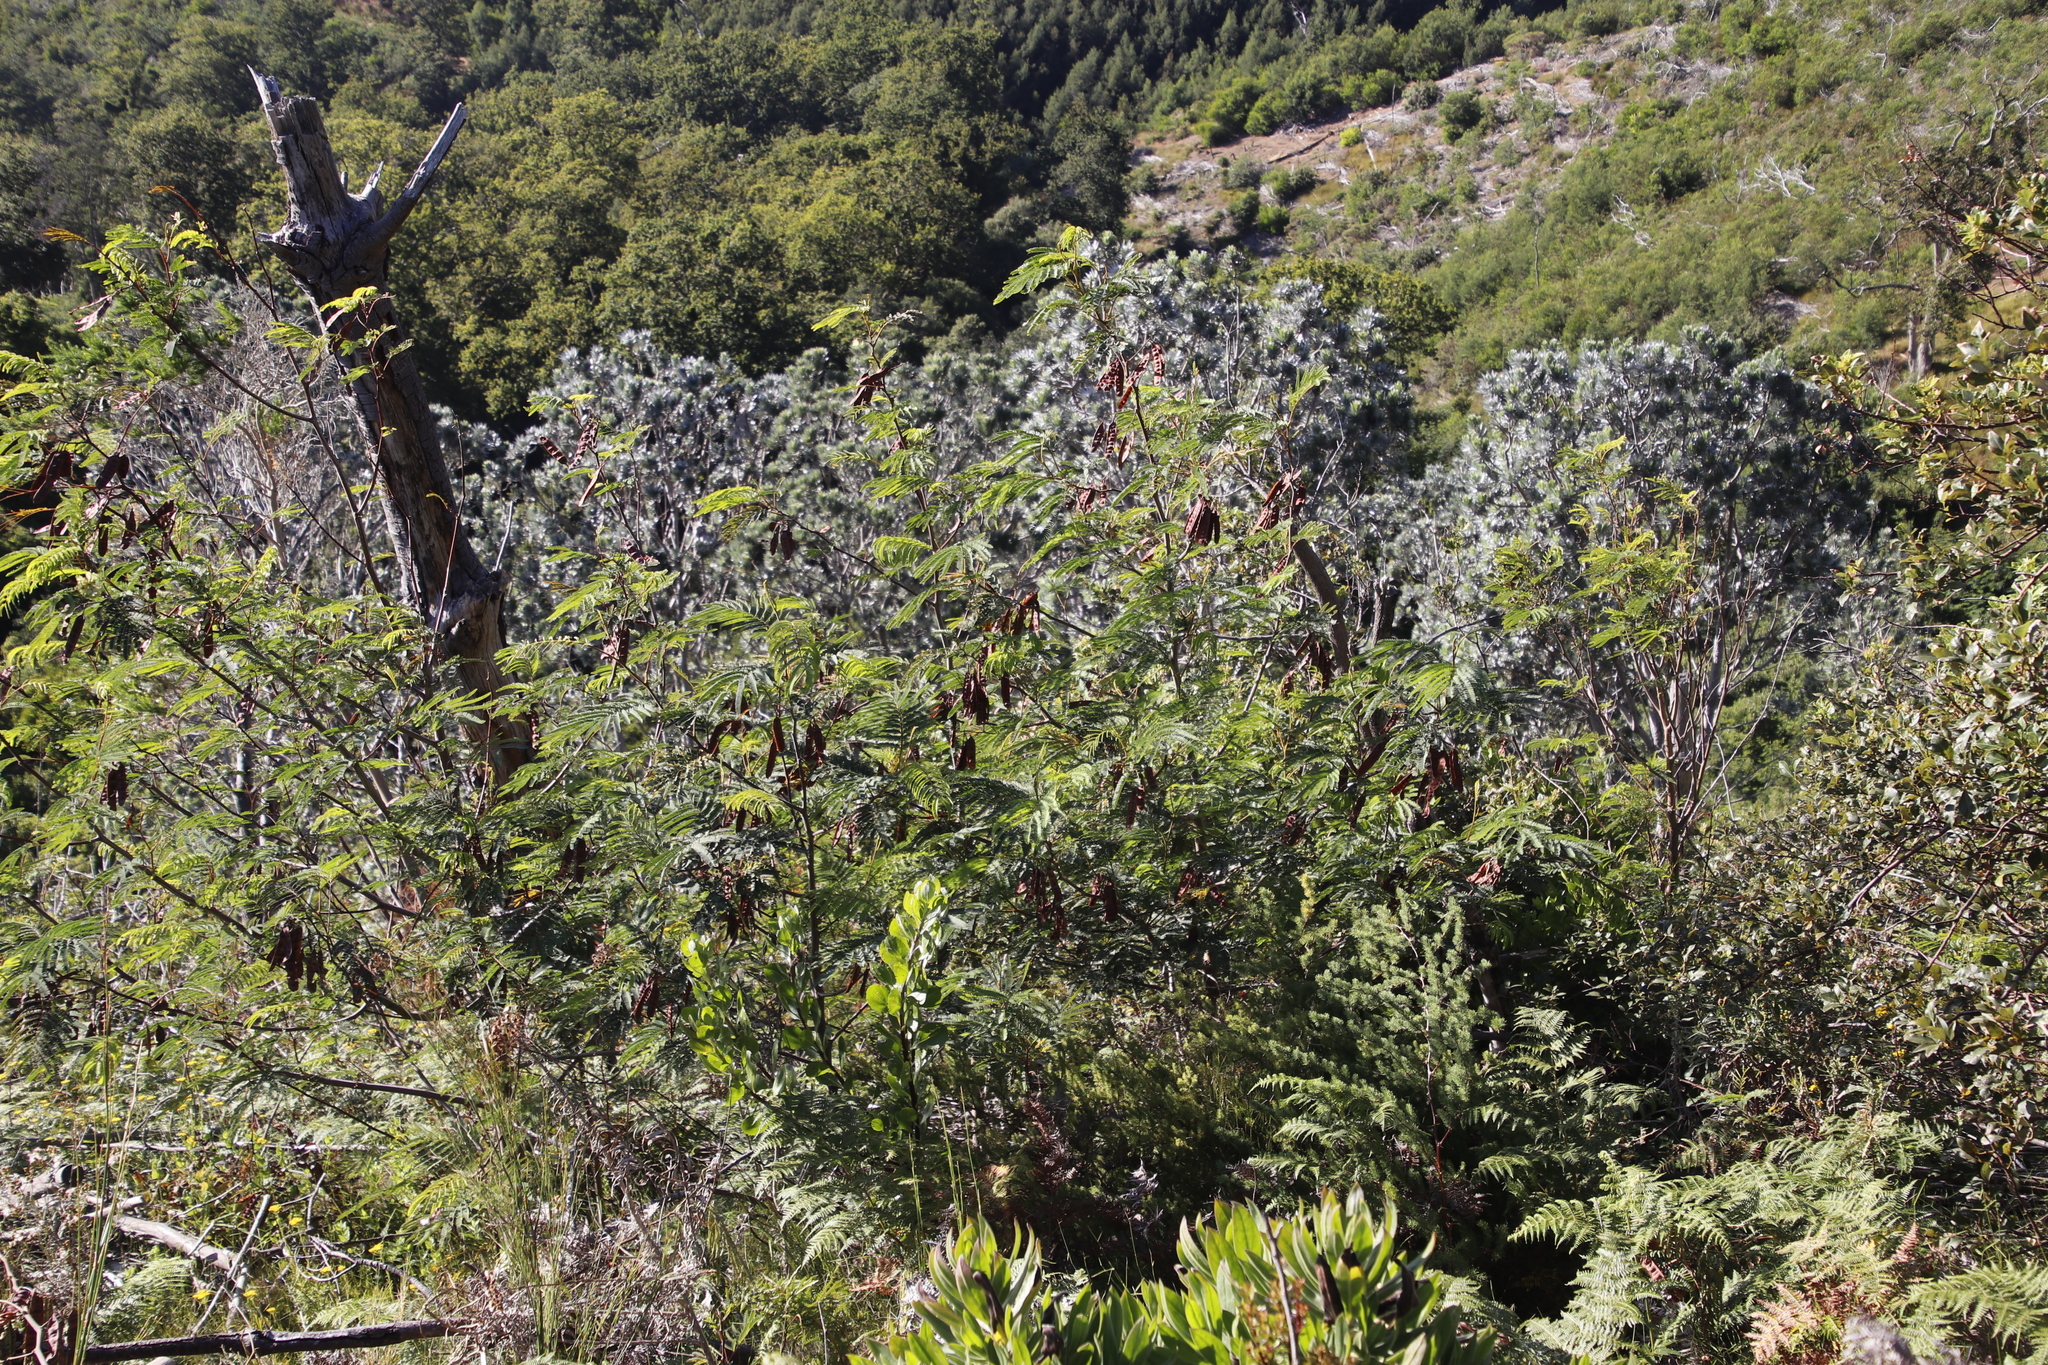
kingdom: Plantae
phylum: Tracheophyta
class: Magnoliopsida
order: Fabales
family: Fabaceae
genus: Paraserianthes
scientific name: Paraserianthes lophantha
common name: Plume albizia
